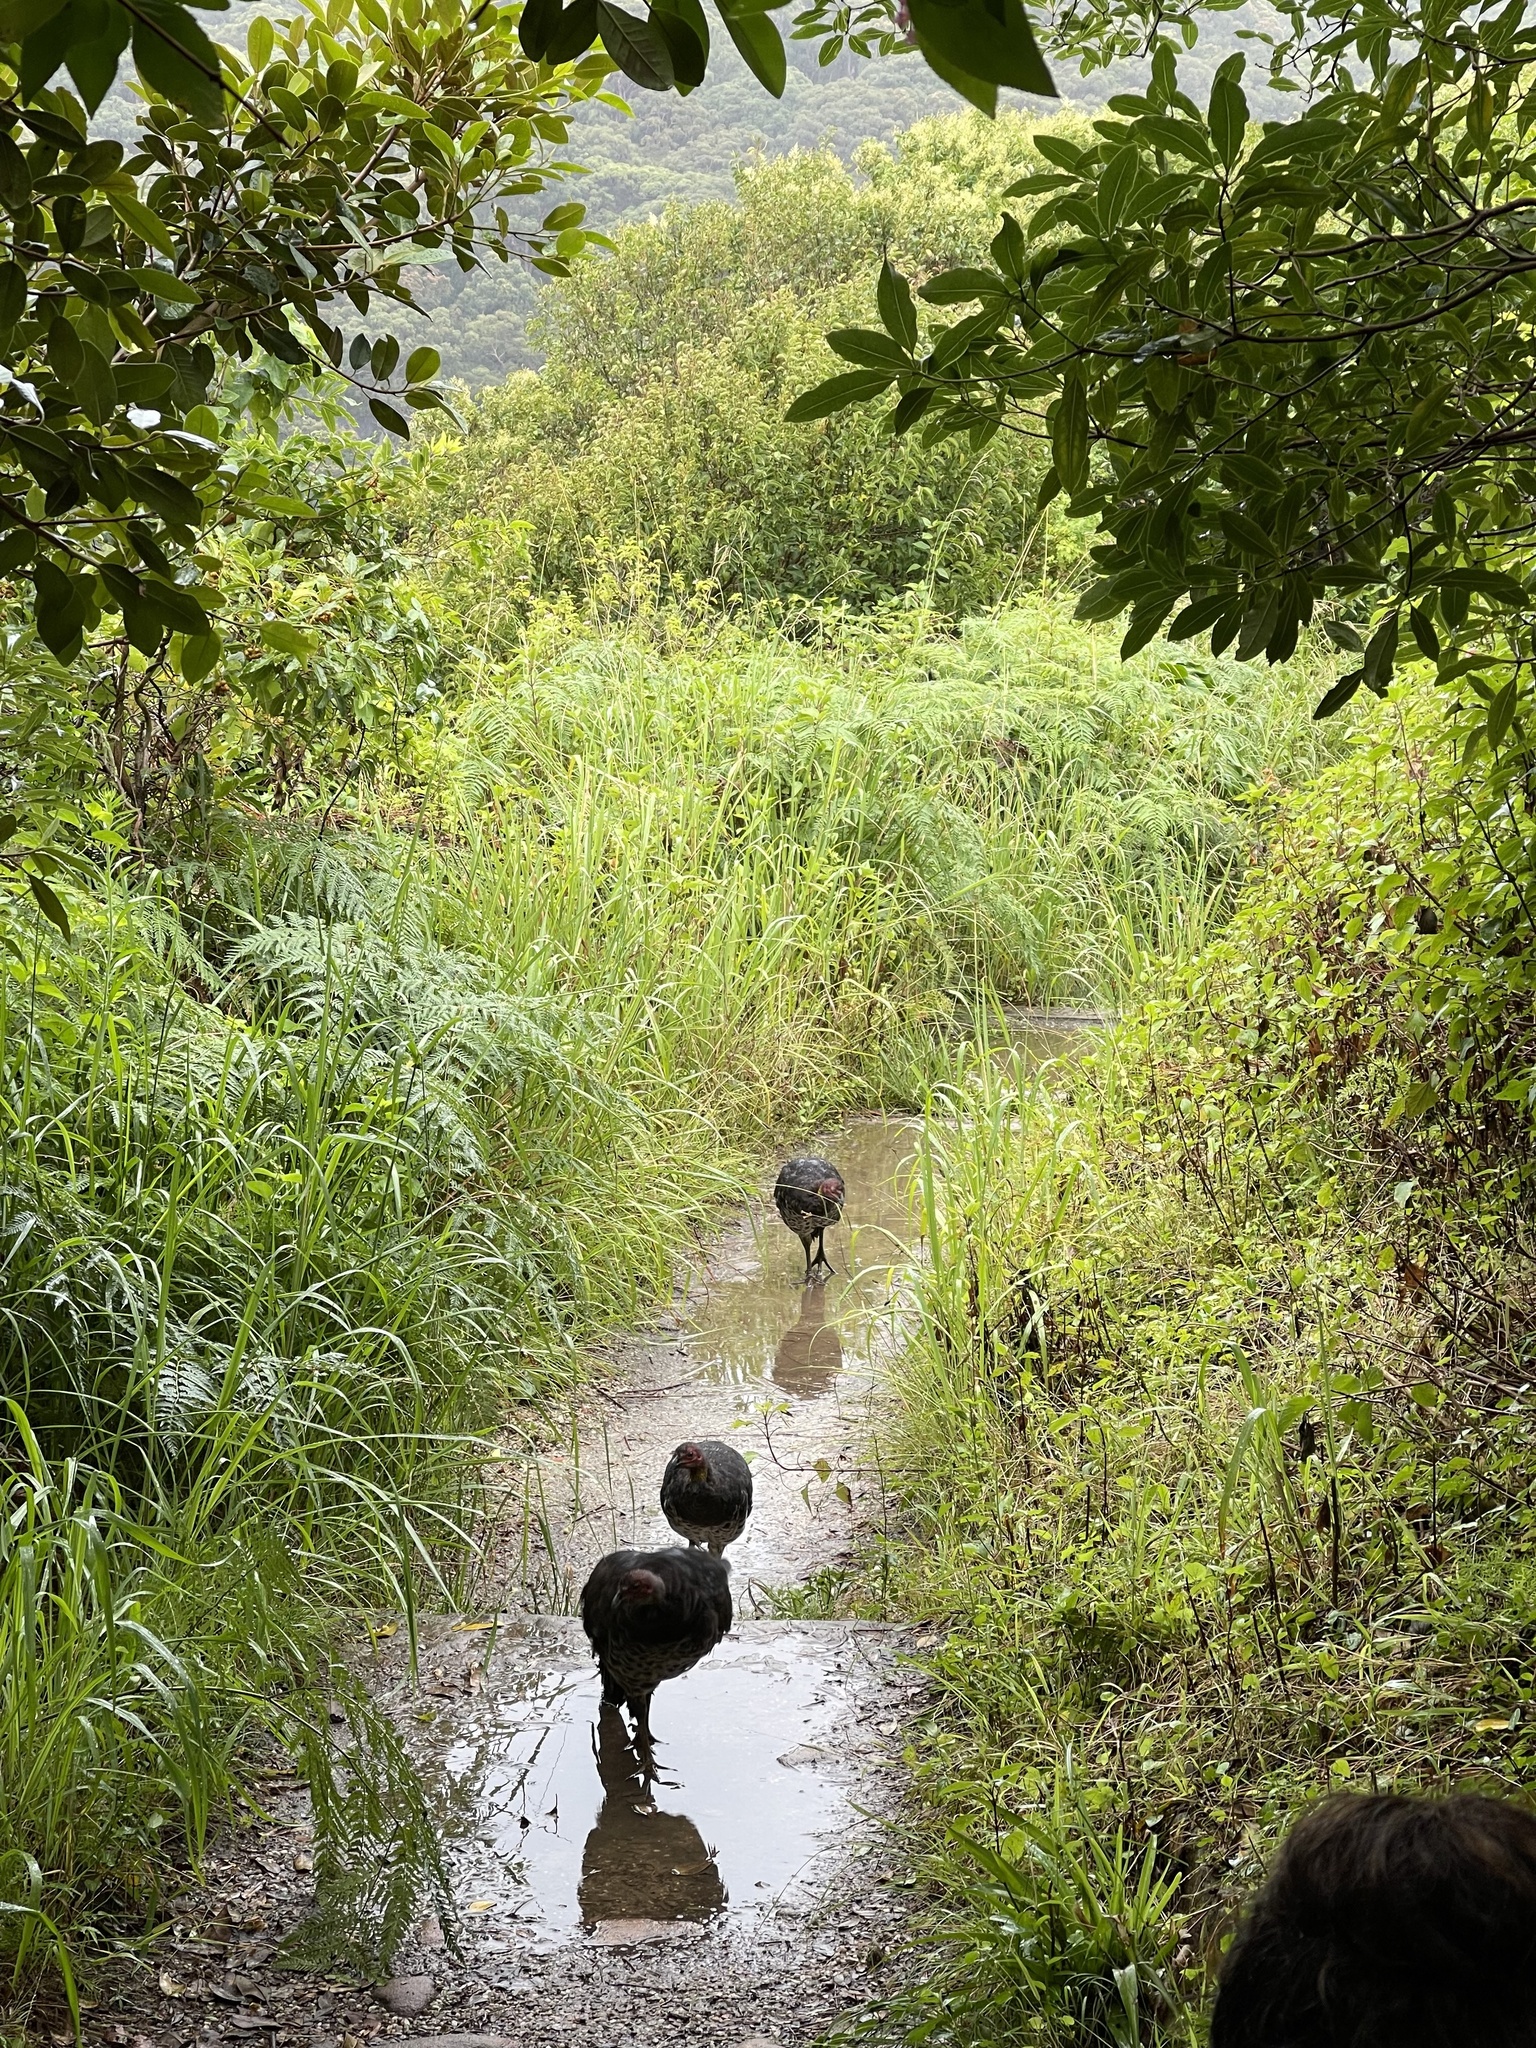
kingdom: Animalia
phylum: Chordata
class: Aves
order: Galliformes
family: Megapodiidae
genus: Alectura
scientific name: Alectura lathami
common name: Australian brushturkey
